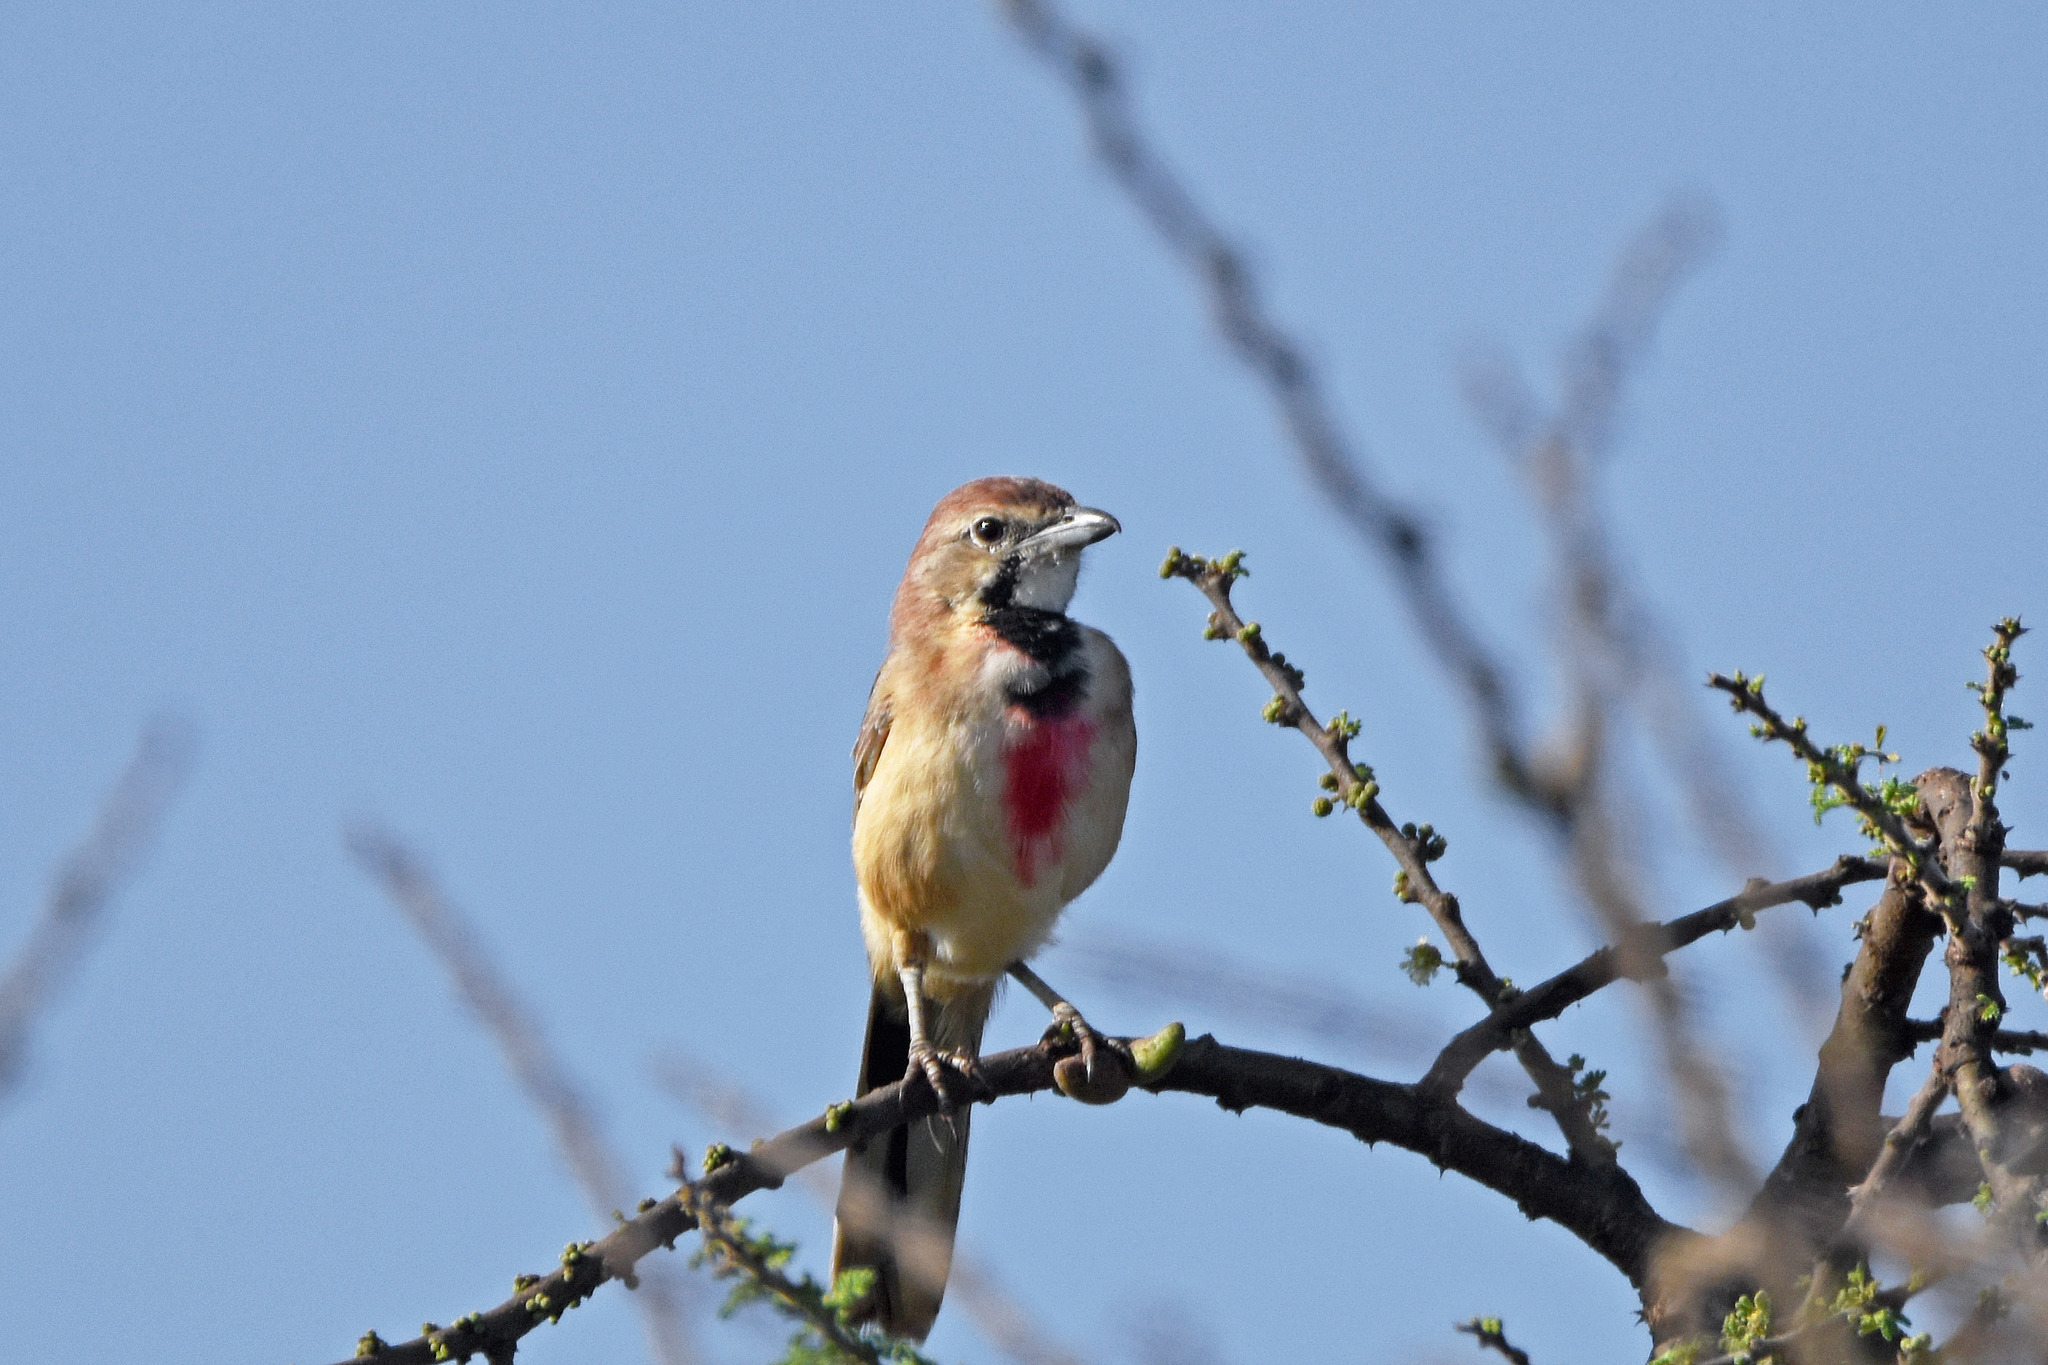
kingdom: Animalia
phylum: Chordata
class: Aves
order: Passeriformes
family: Malaconotidae
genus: Telophorus
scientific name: Telophorus cruentus
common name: Rosy-patched bushshrike
